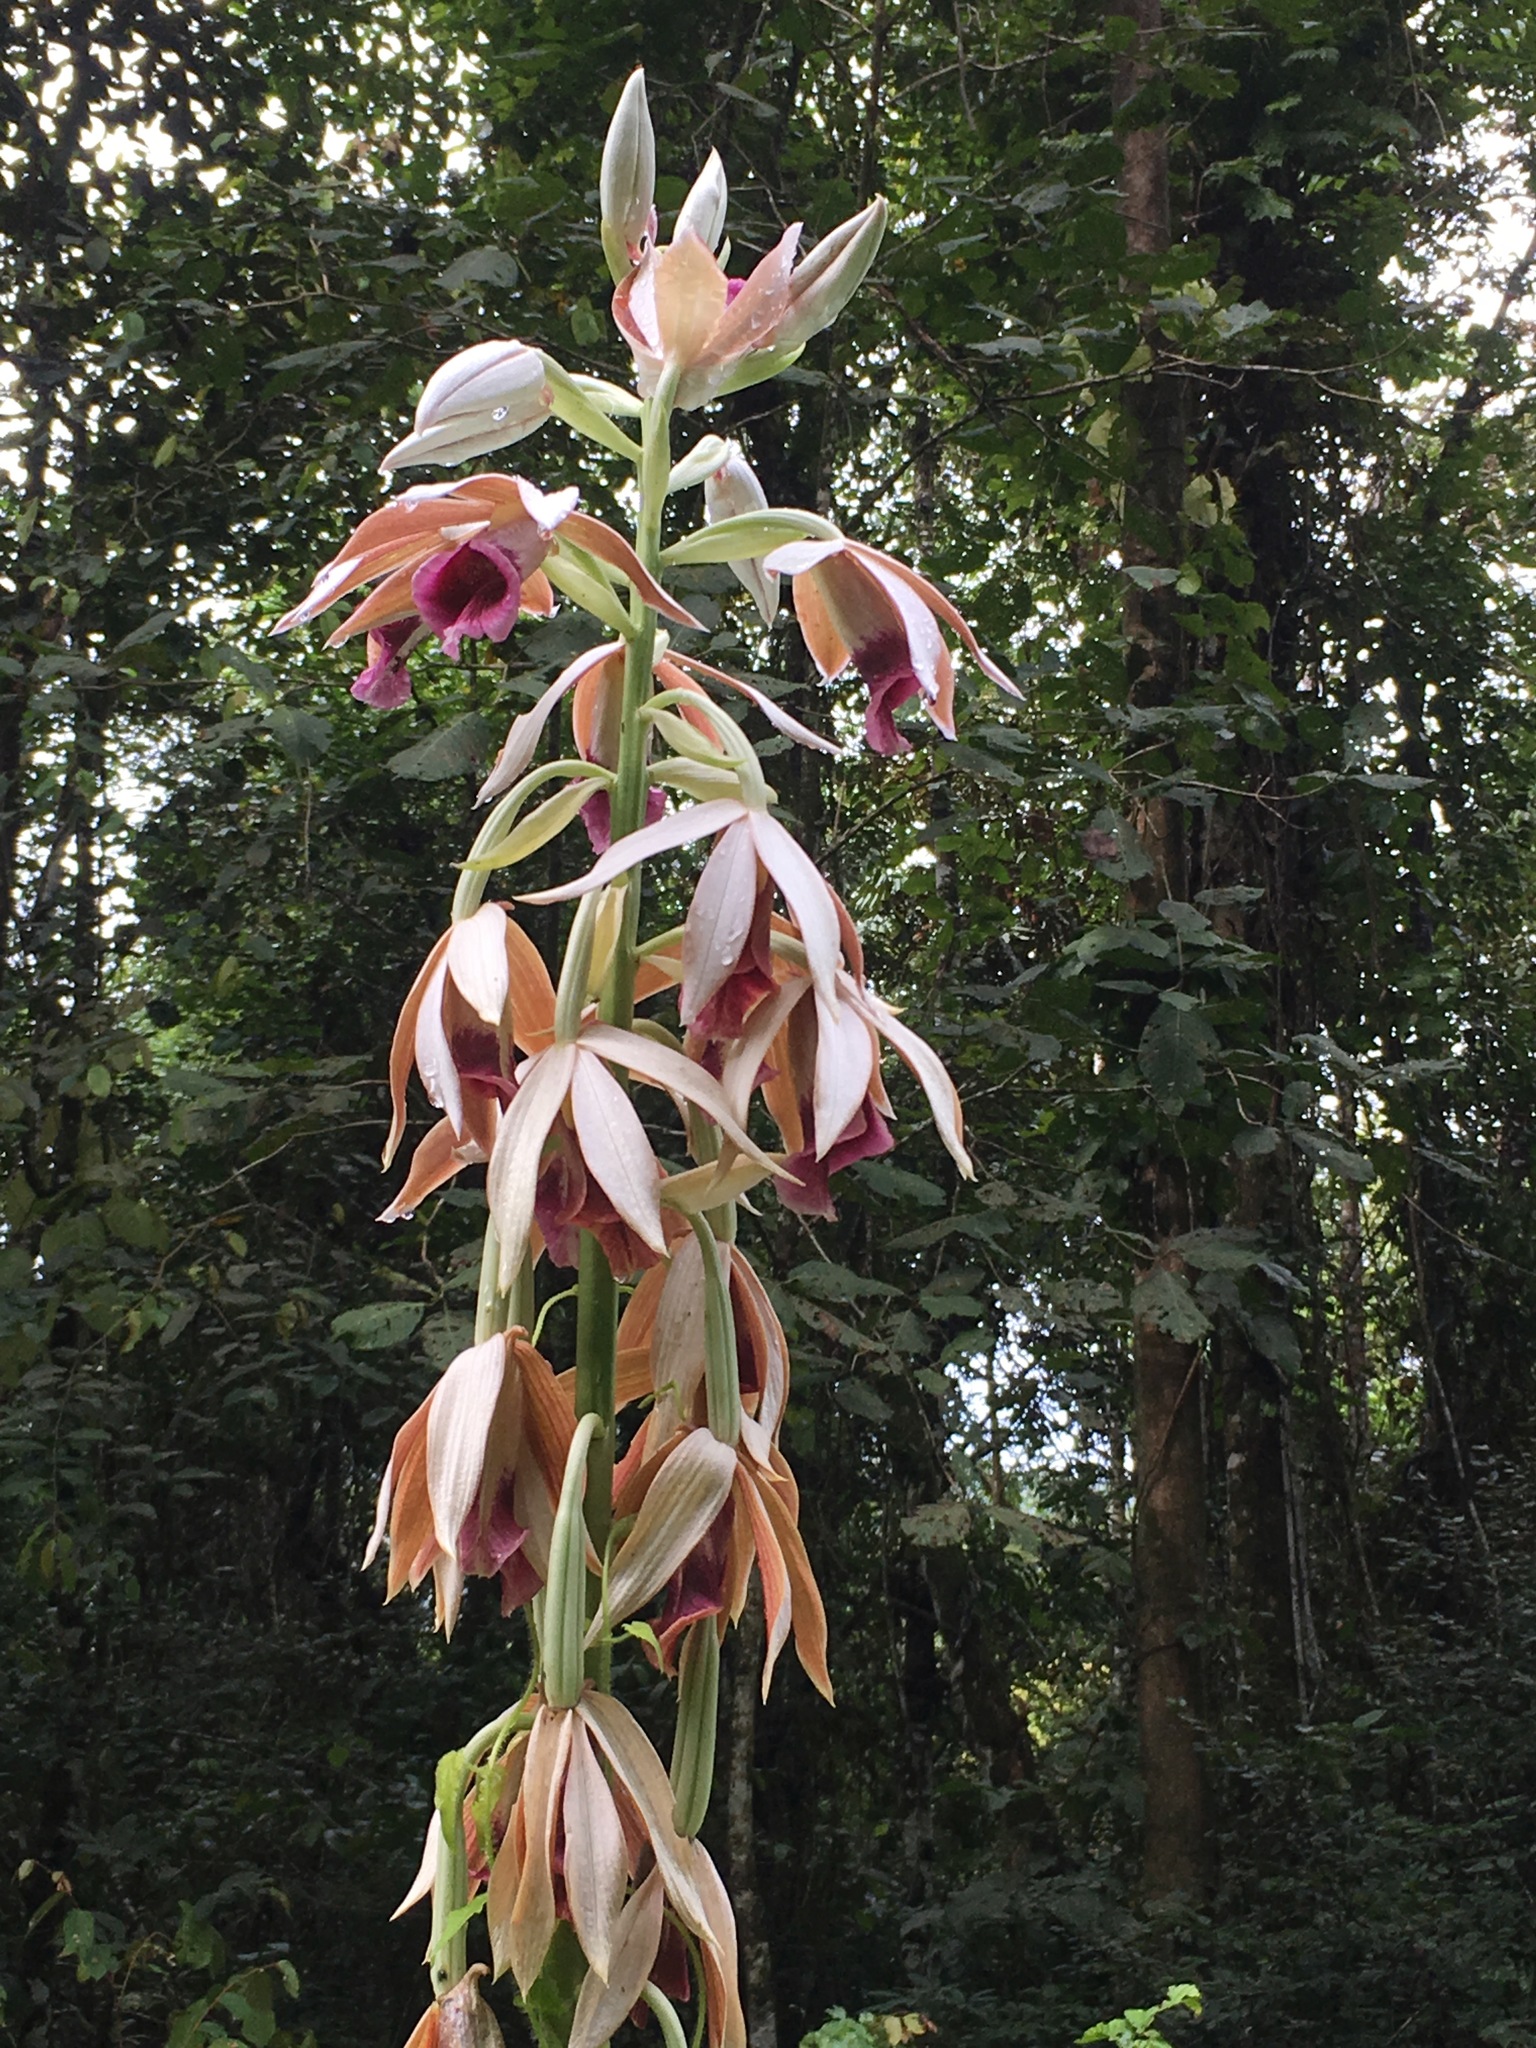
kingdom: Plantae
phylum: Tracheophyta
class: Liliopsida
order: Asparagales
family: Orchidaceae
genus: Calanthe
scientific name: Calanthe tankervilleae
